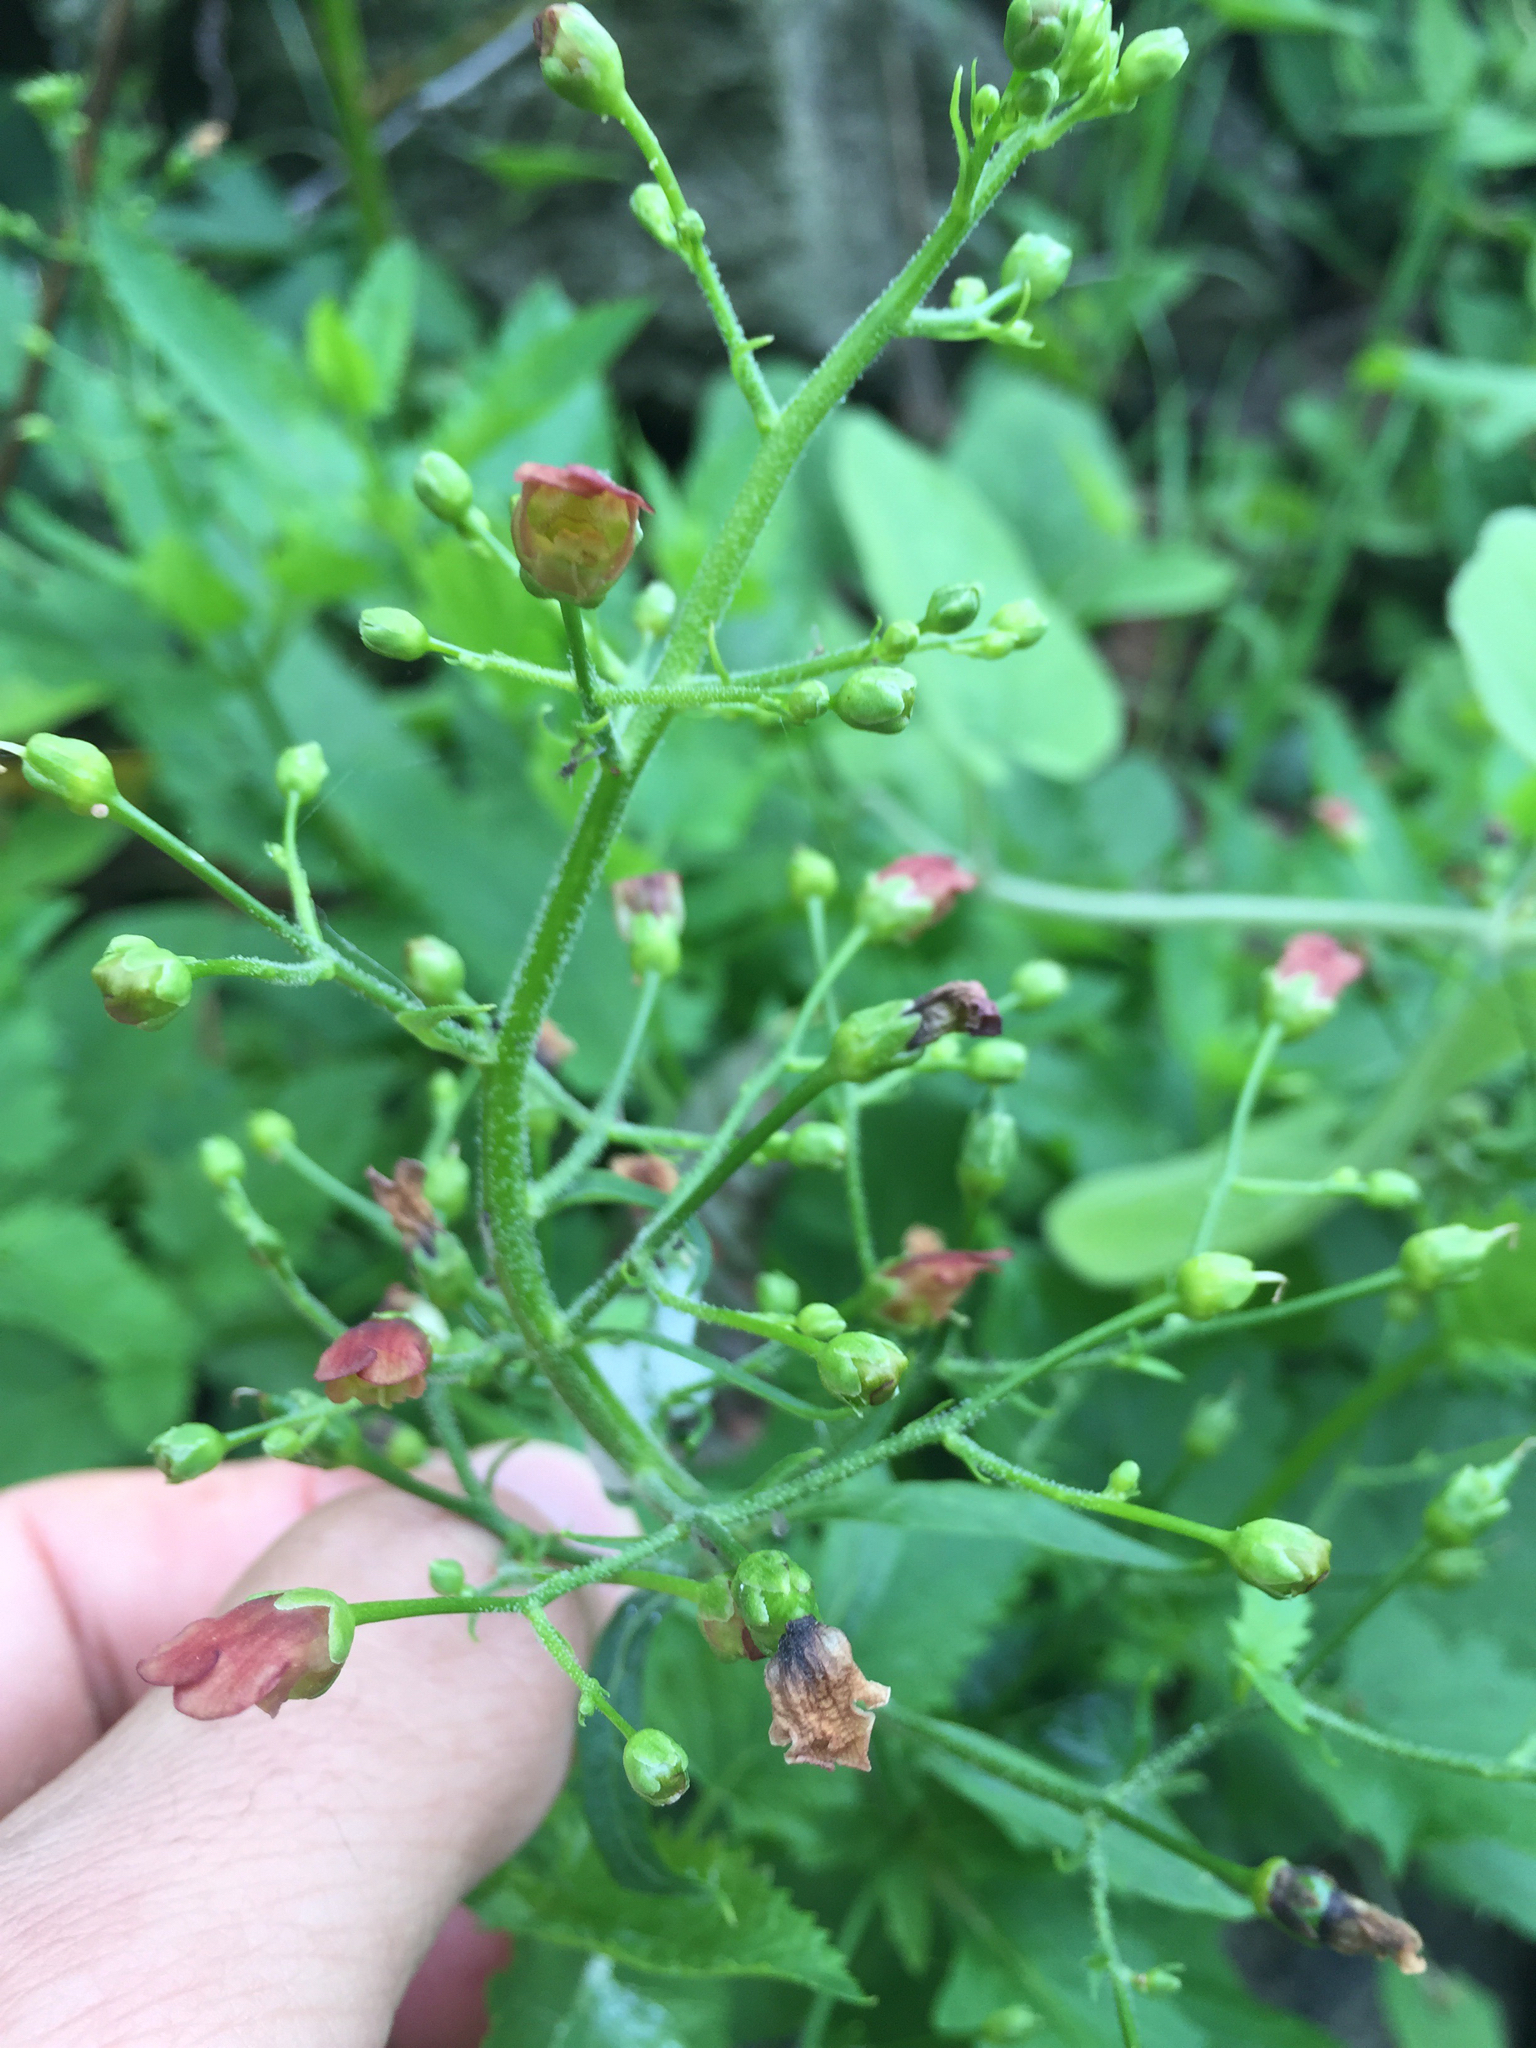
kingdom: Plantae
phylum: Tracheophyta
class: Magnoliopsida
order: Lamiales
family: Scrophulariaceae
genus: Scrophularia
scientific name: Scrophularia californica
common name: California figwort
